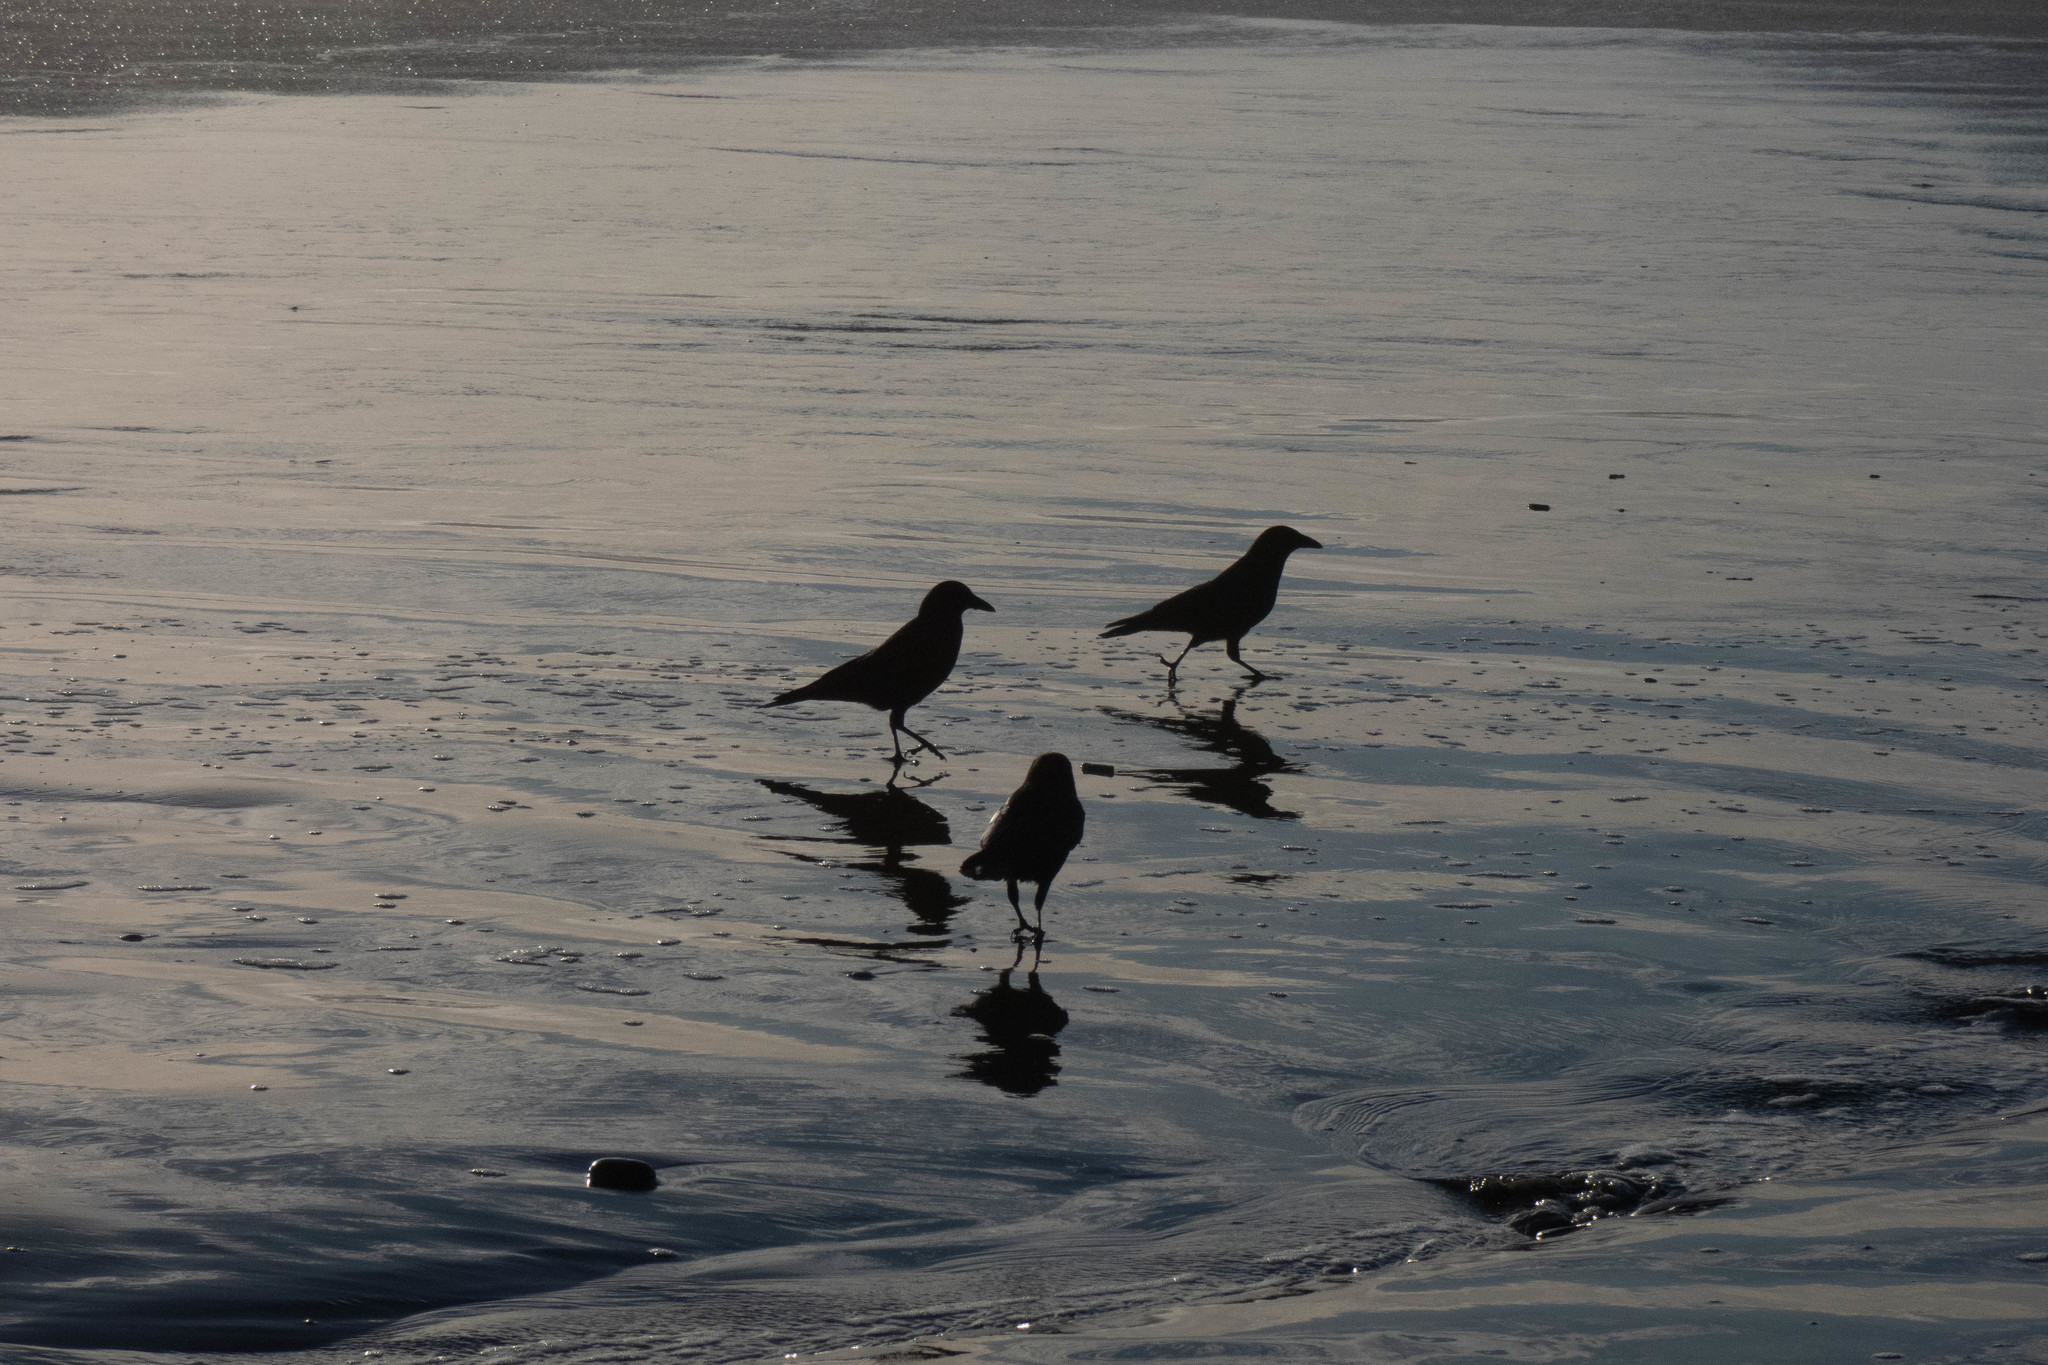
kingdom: Animalia
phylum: Chordata
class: Aves
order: Passeriformes
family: Corvidae
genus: Corvus
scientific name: Corvus brachyrhynchos
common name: American crow
